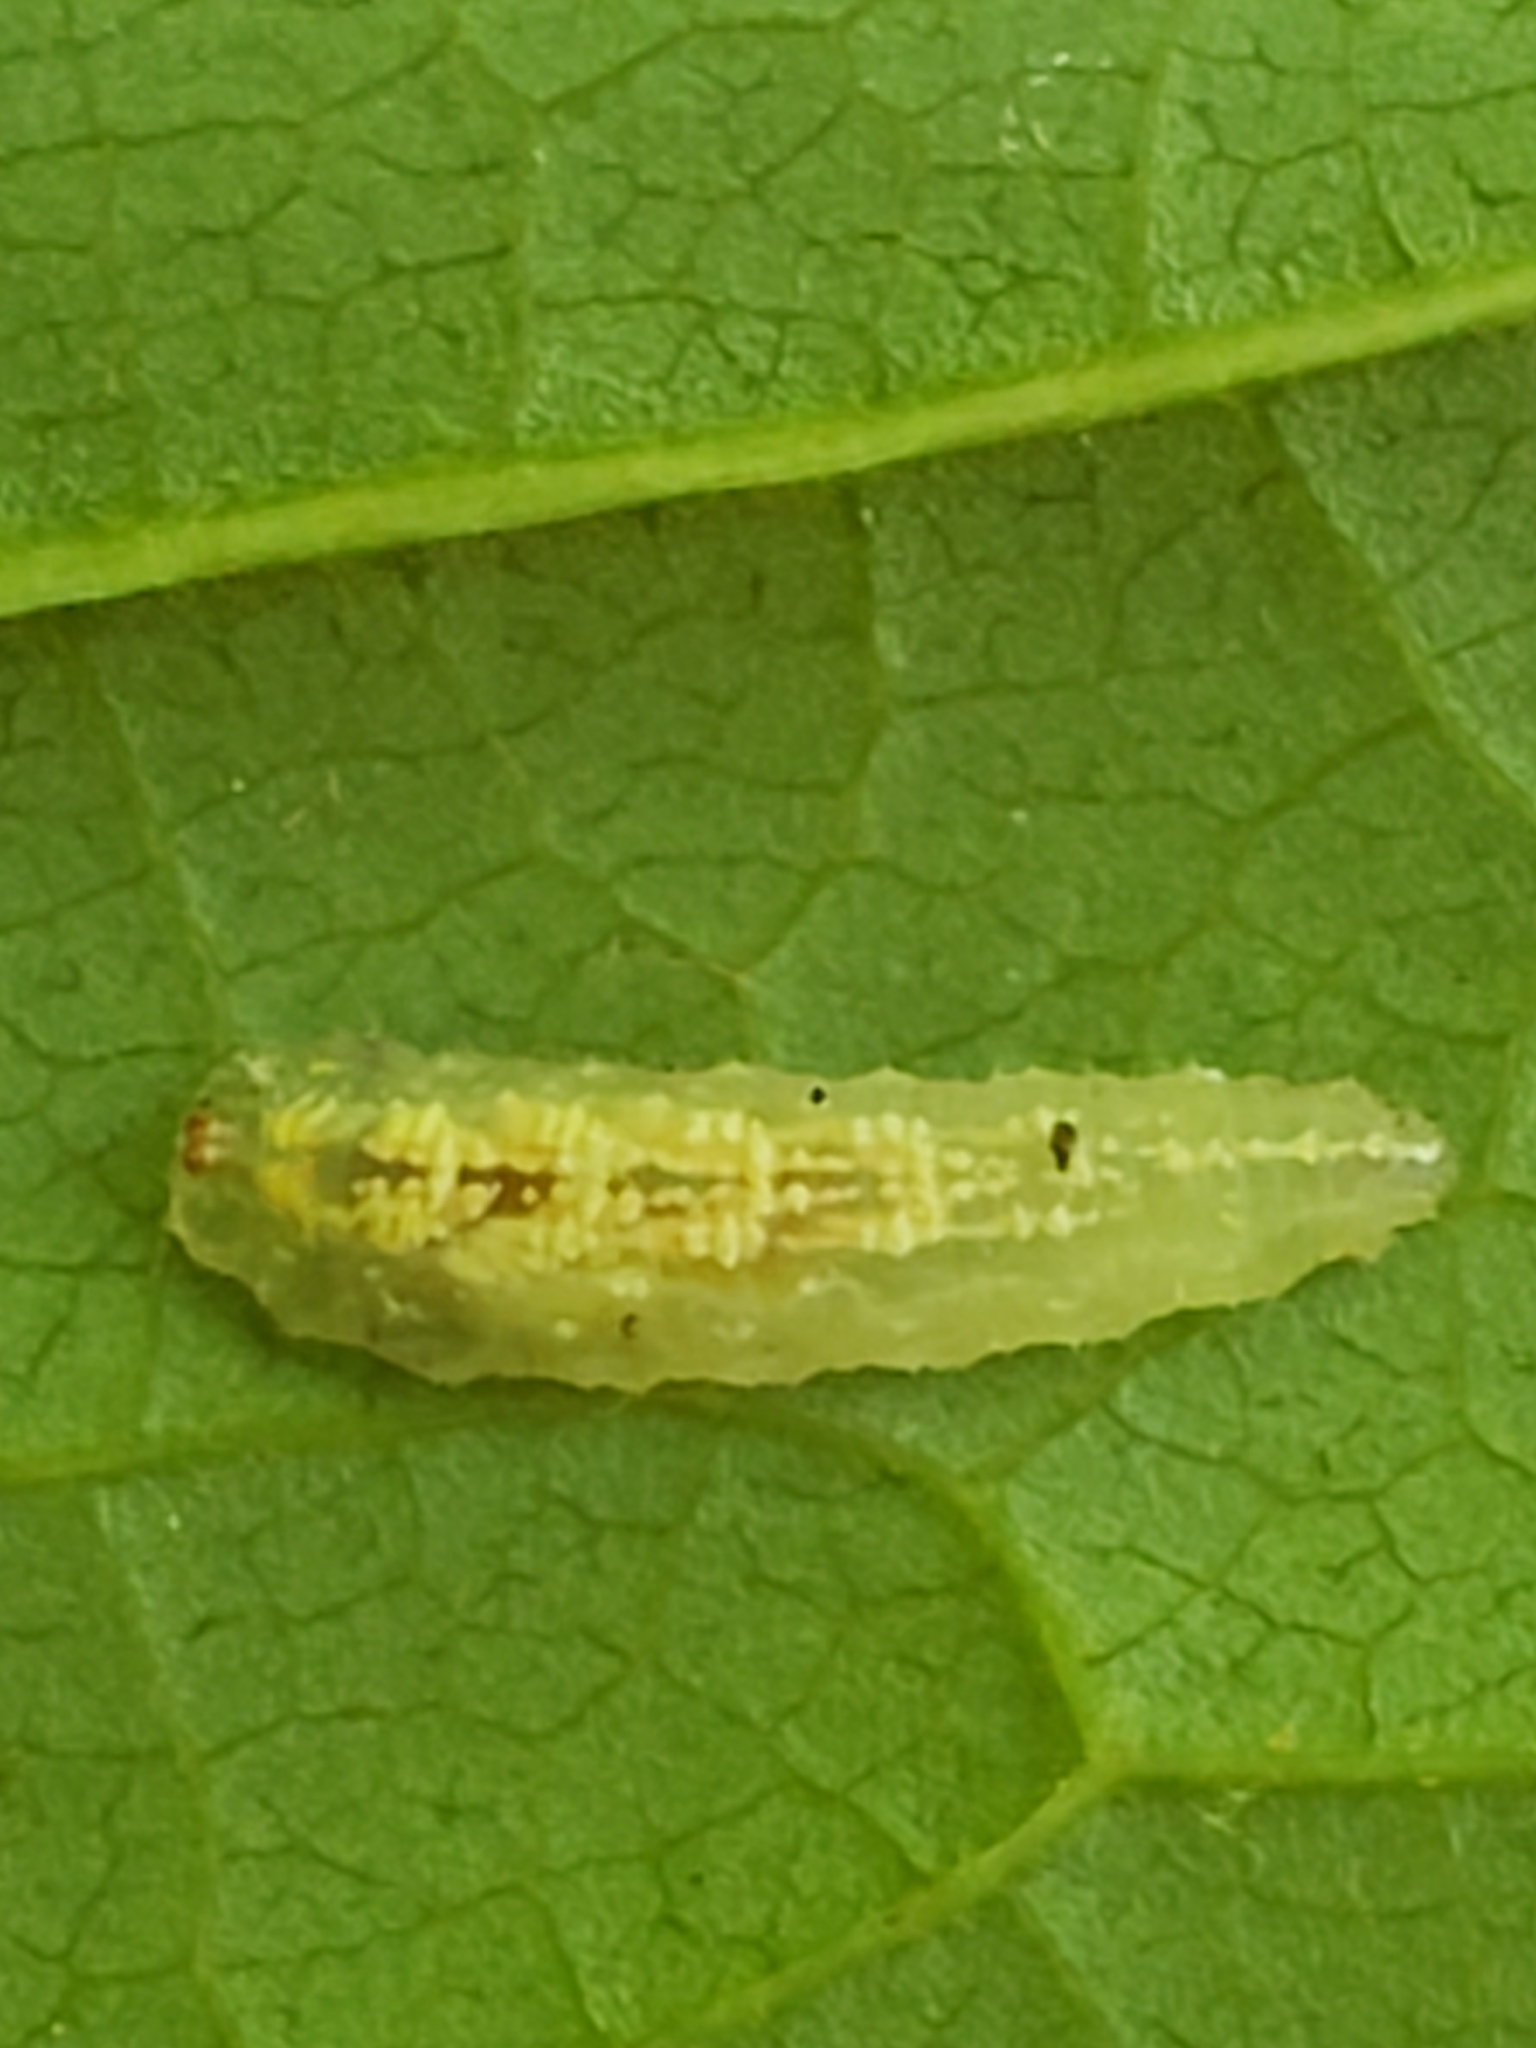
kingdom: Animalia
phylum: Arthropoda
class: Insecta
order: Diptera
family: Syrphidae
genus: Syrphus
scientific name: Syrphus
